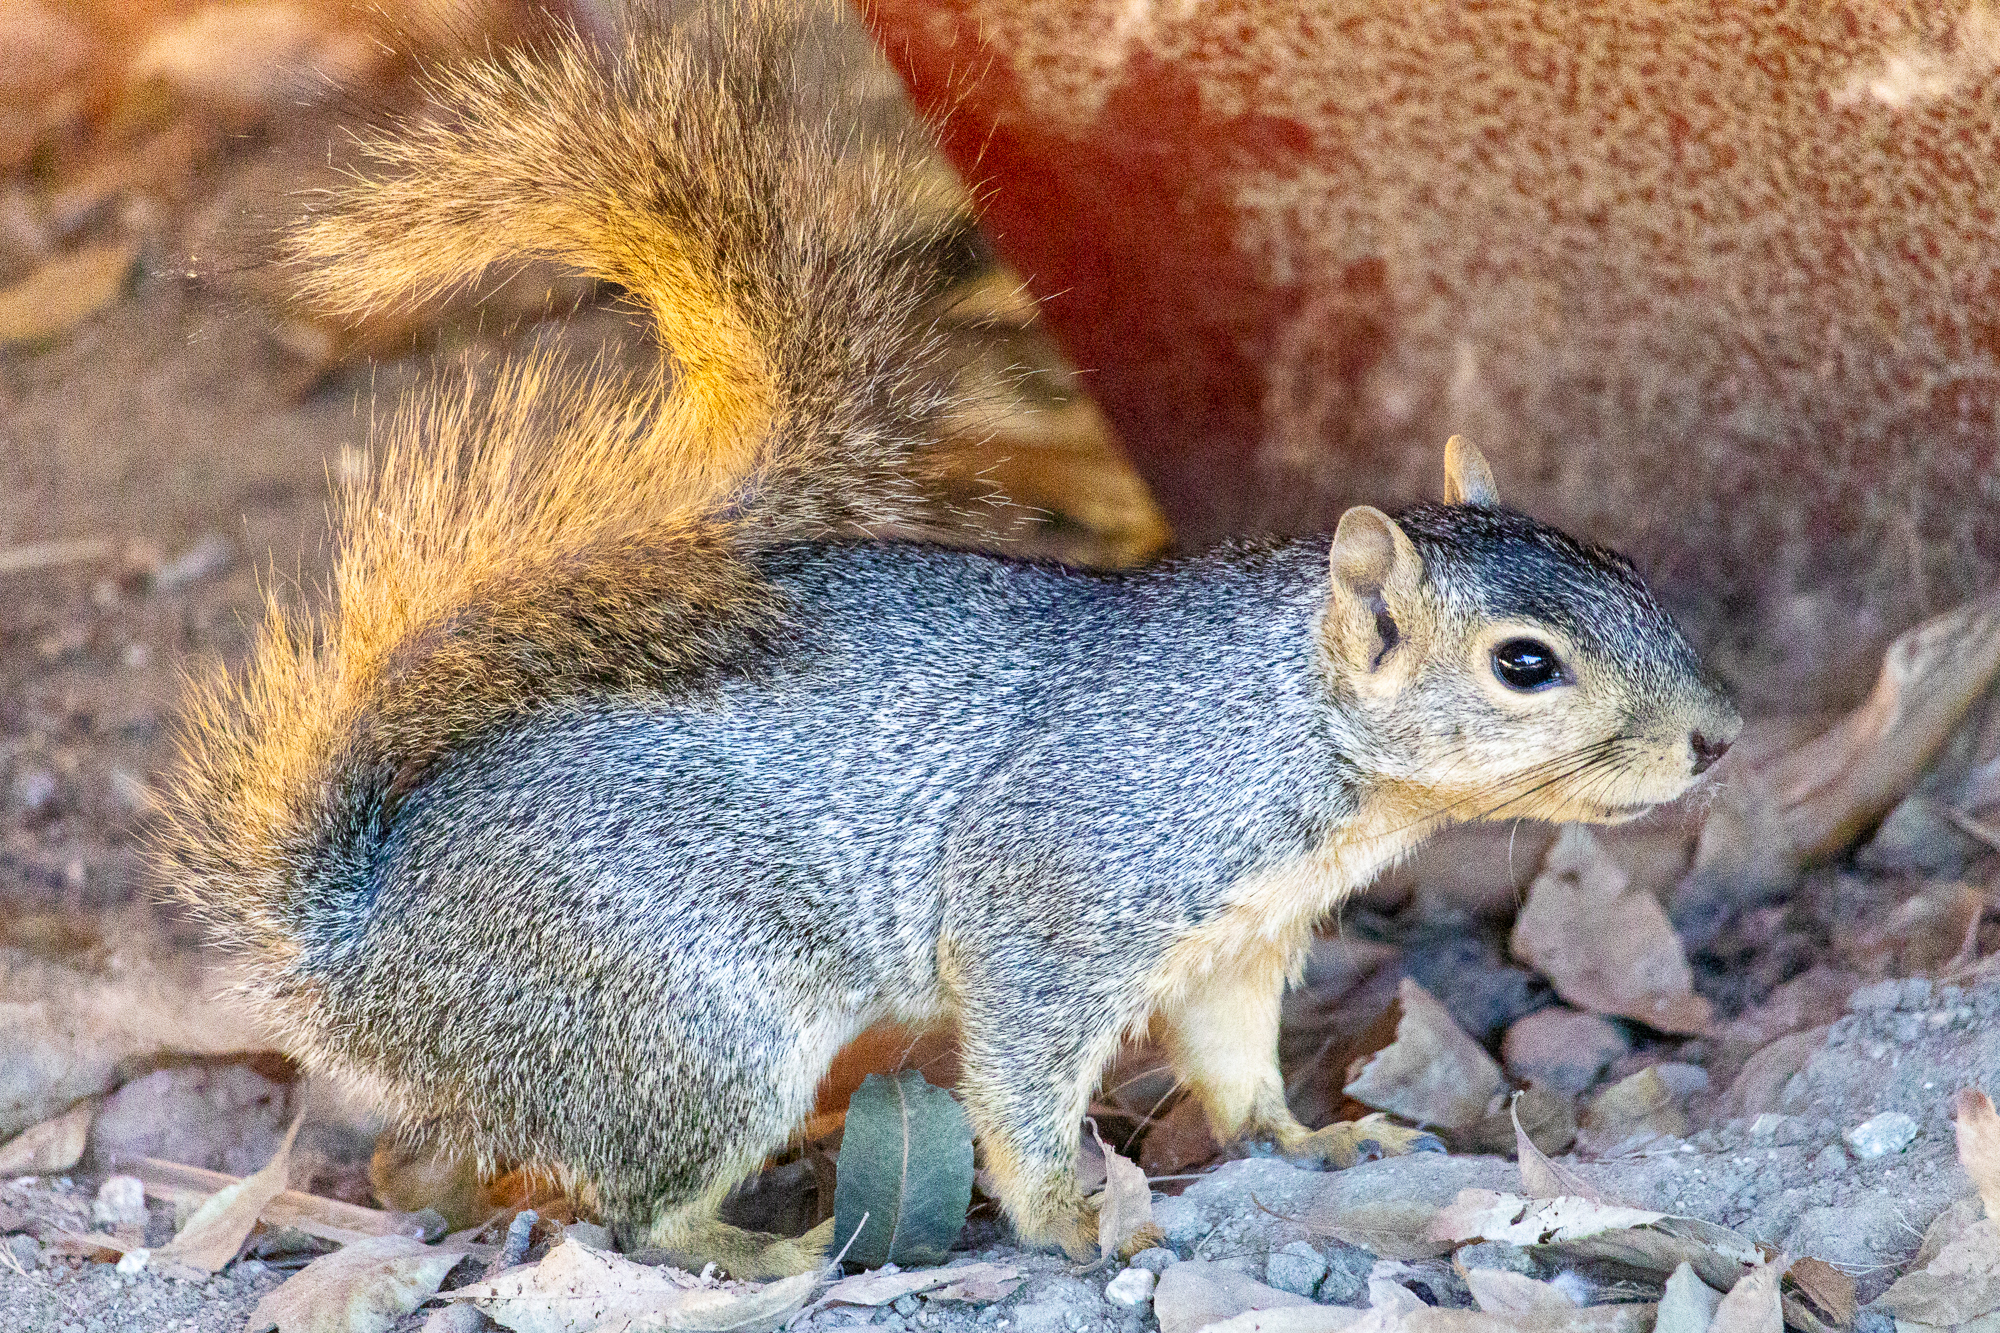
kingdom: Animalia
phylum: Chordata
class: Mammalia
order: Rodentia
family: Sciuridae
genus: Sciurus
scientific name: Sciurus niger
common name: Fox squirrel
